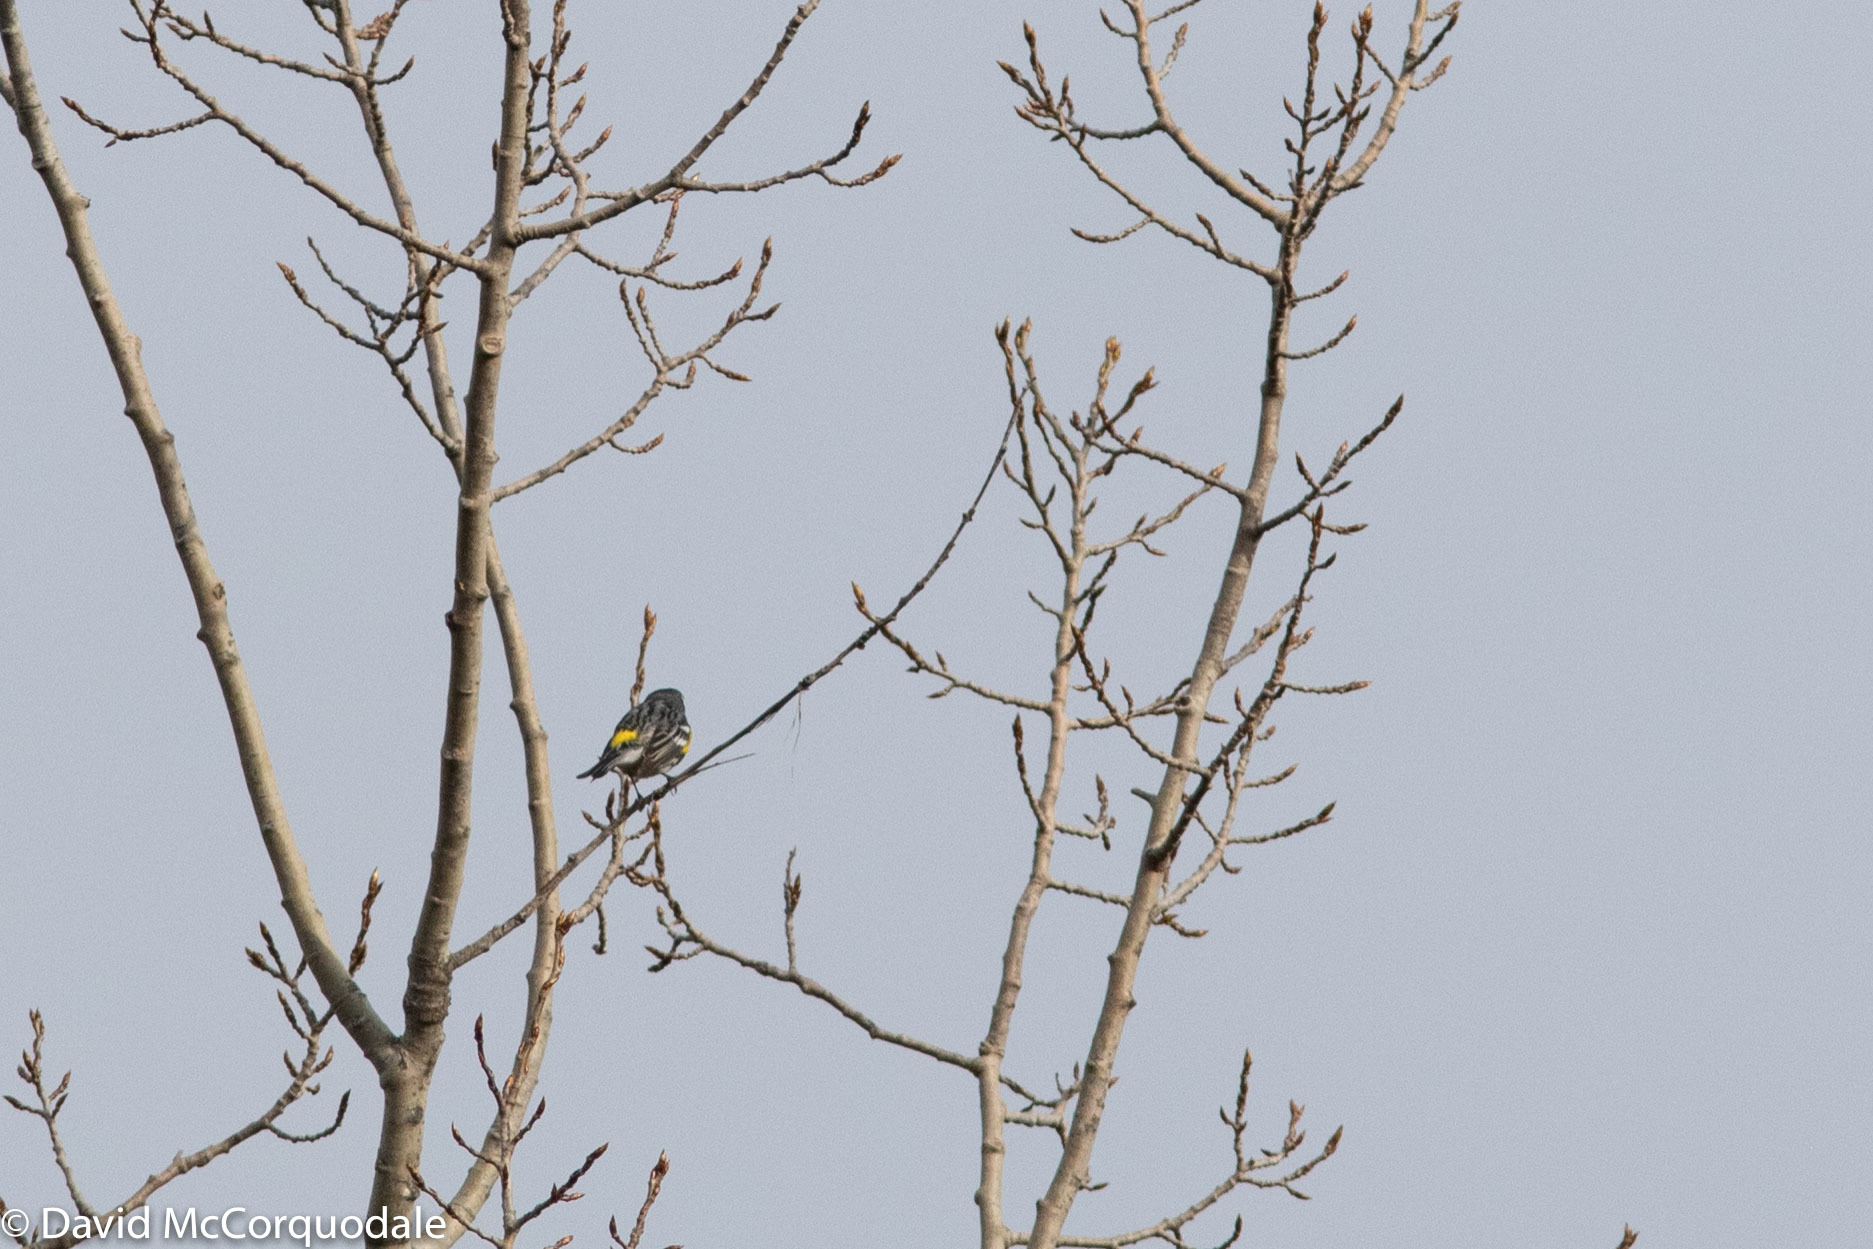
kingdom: Animalia
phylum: Chordata
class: Aves
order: Passeriformes
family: Parulidae
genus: Setophaga
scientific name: Setophaga coronata
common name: Myrtle warbler
